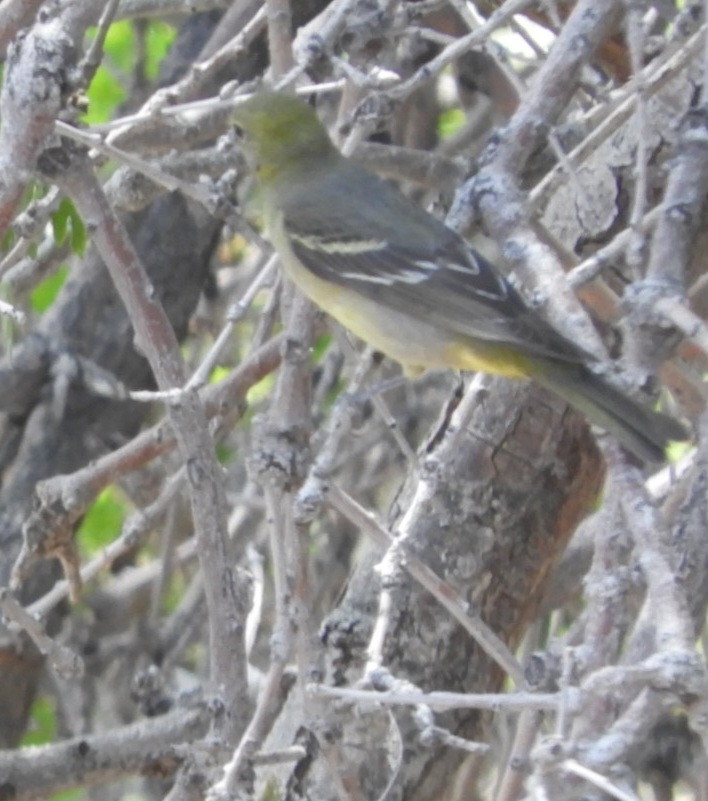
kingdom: Animalia
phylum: Chordata
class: Aves
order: Passeriformes
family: Cardinalidae
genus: Piranga
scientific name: Piranga ludoviciana
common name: Western tanager
